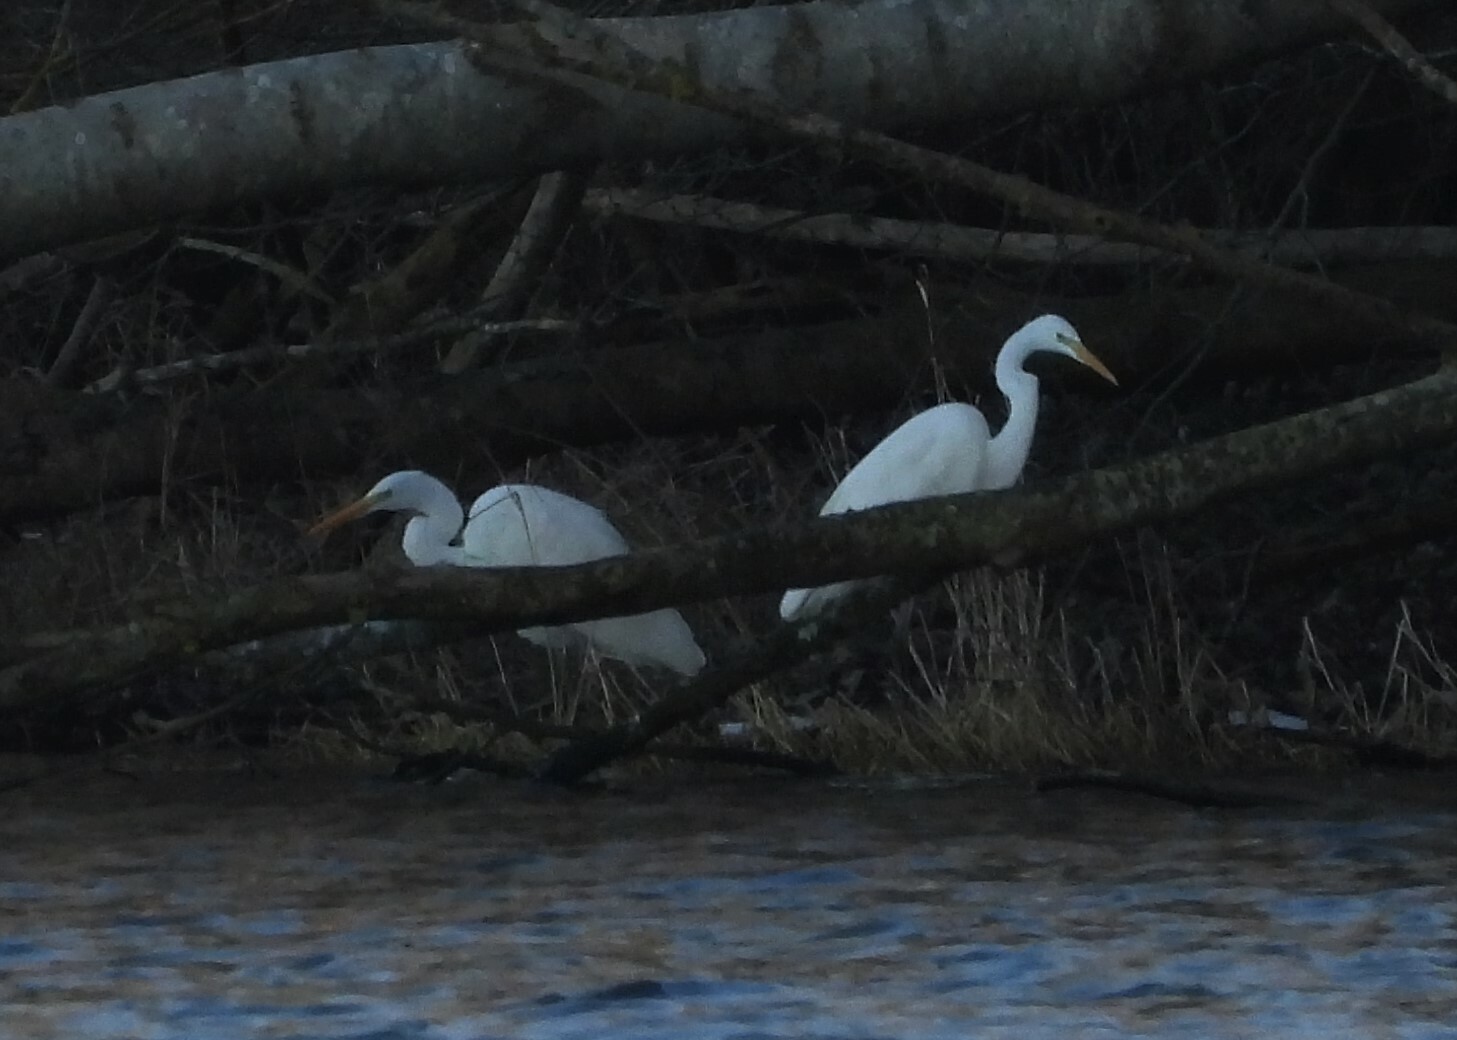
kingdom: Animalia
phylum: Chordata
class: Aves
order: Pelecaniformes
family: Ardeidae
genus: Ardea
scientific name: Ardea alba
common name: Great egret
